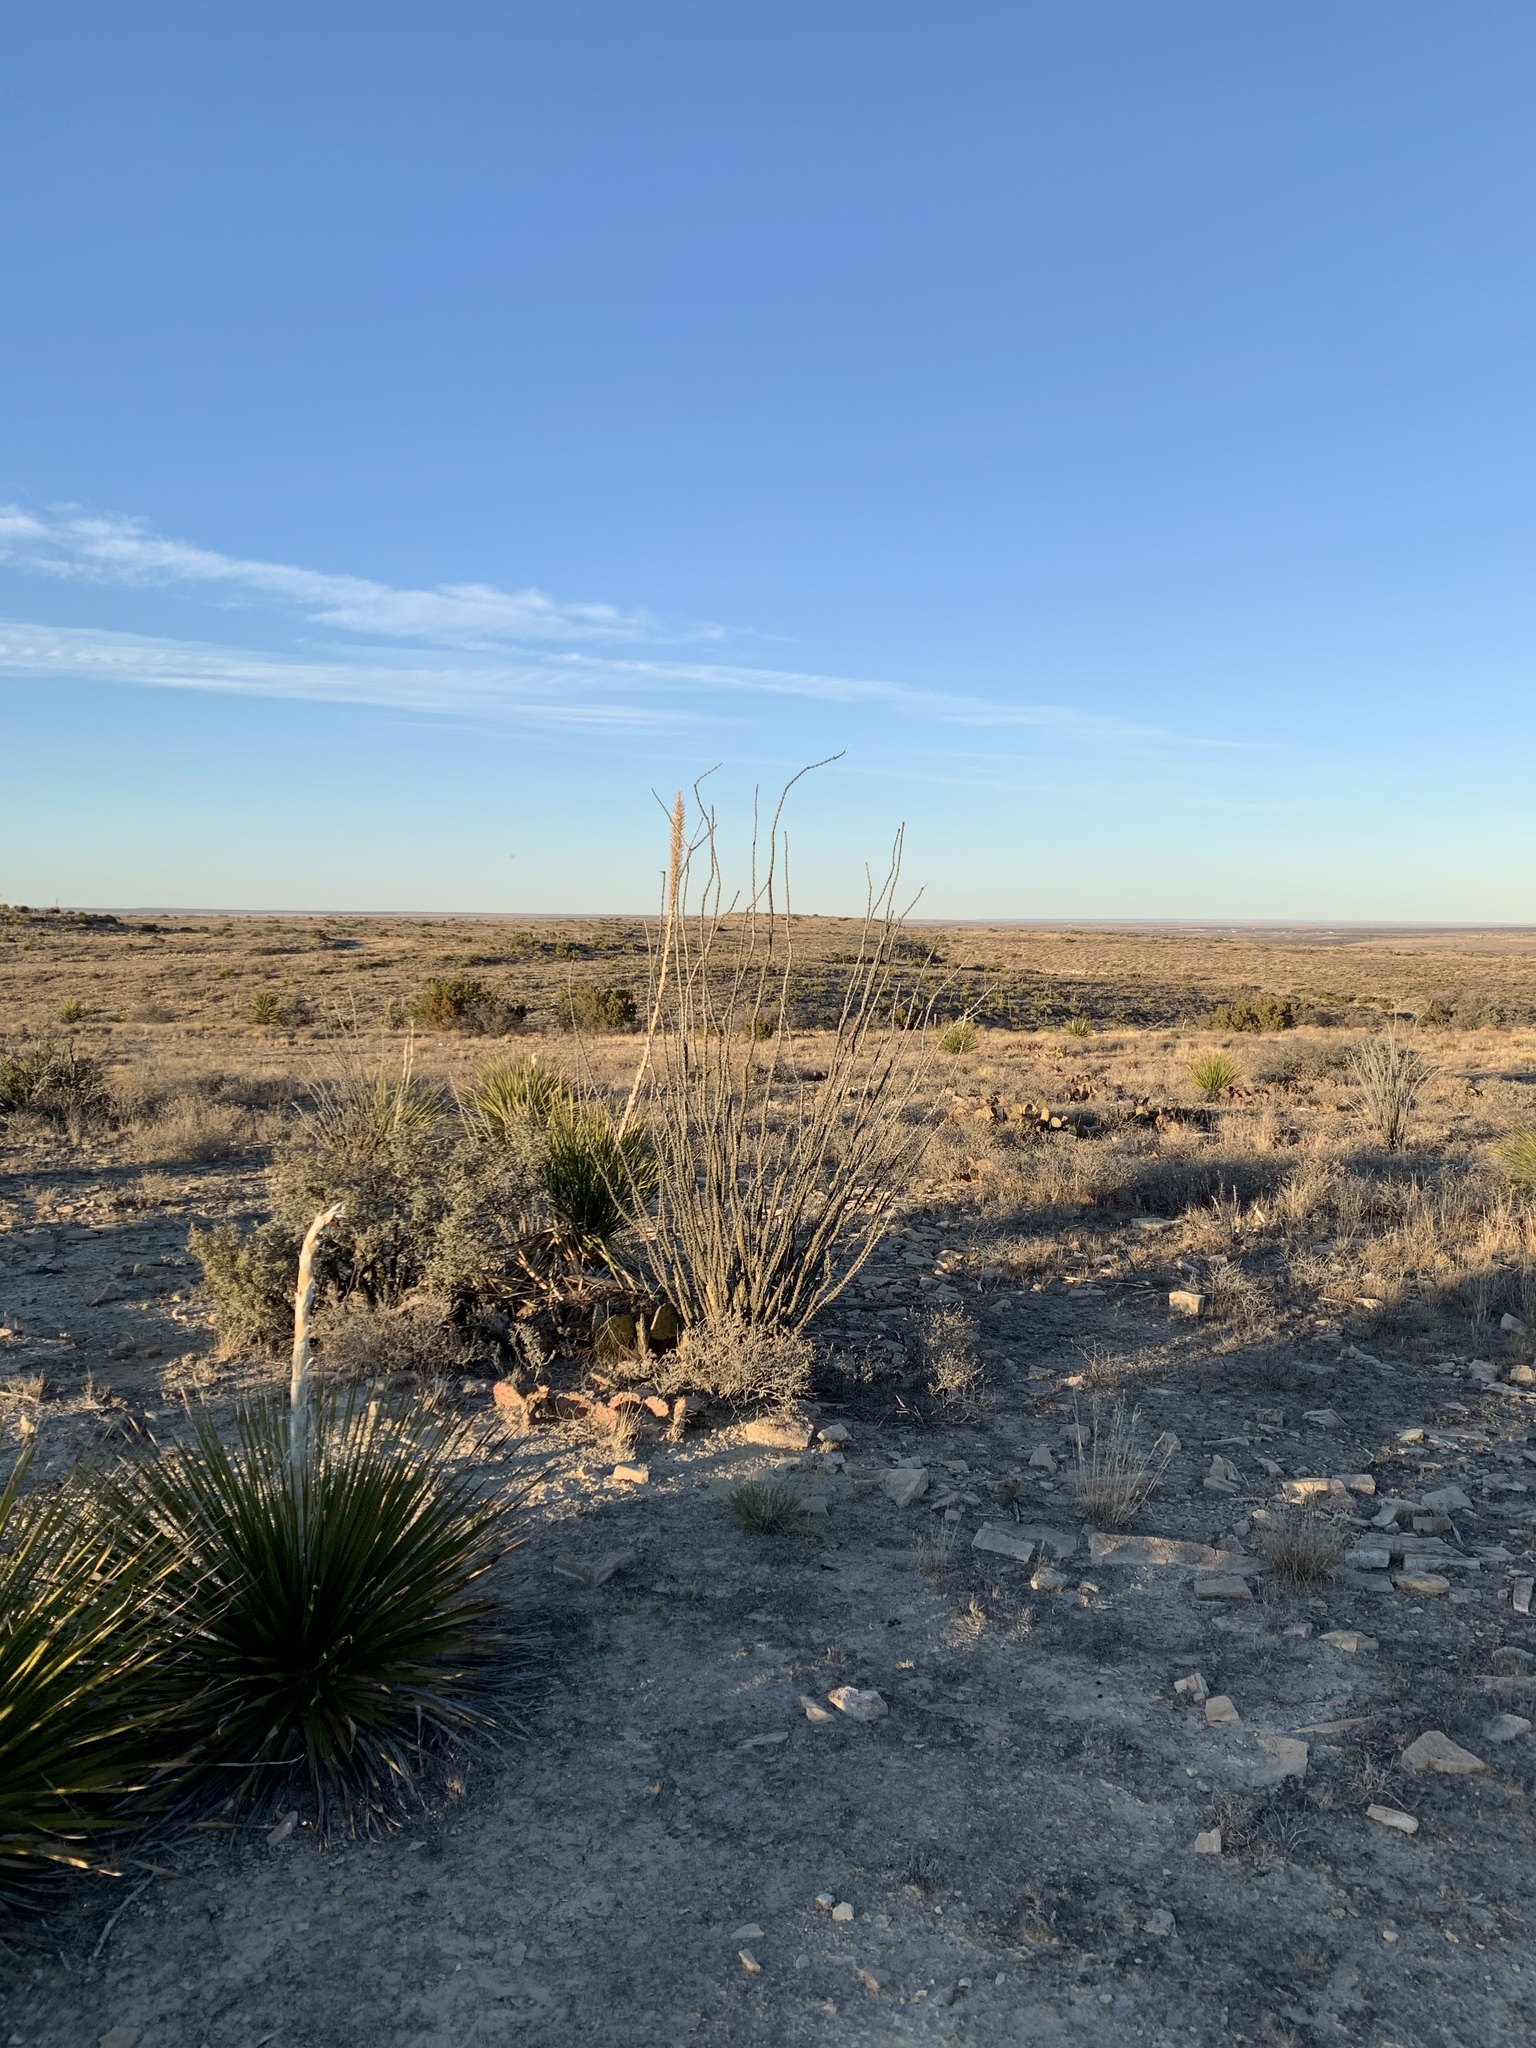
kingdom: Plantae
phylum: Tracheophyta
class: Magnoliopsida
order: Ericales
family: Fouquieriaceae
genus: Fouquieria
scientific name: Fouquieria splendens
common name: Vine-cactus
